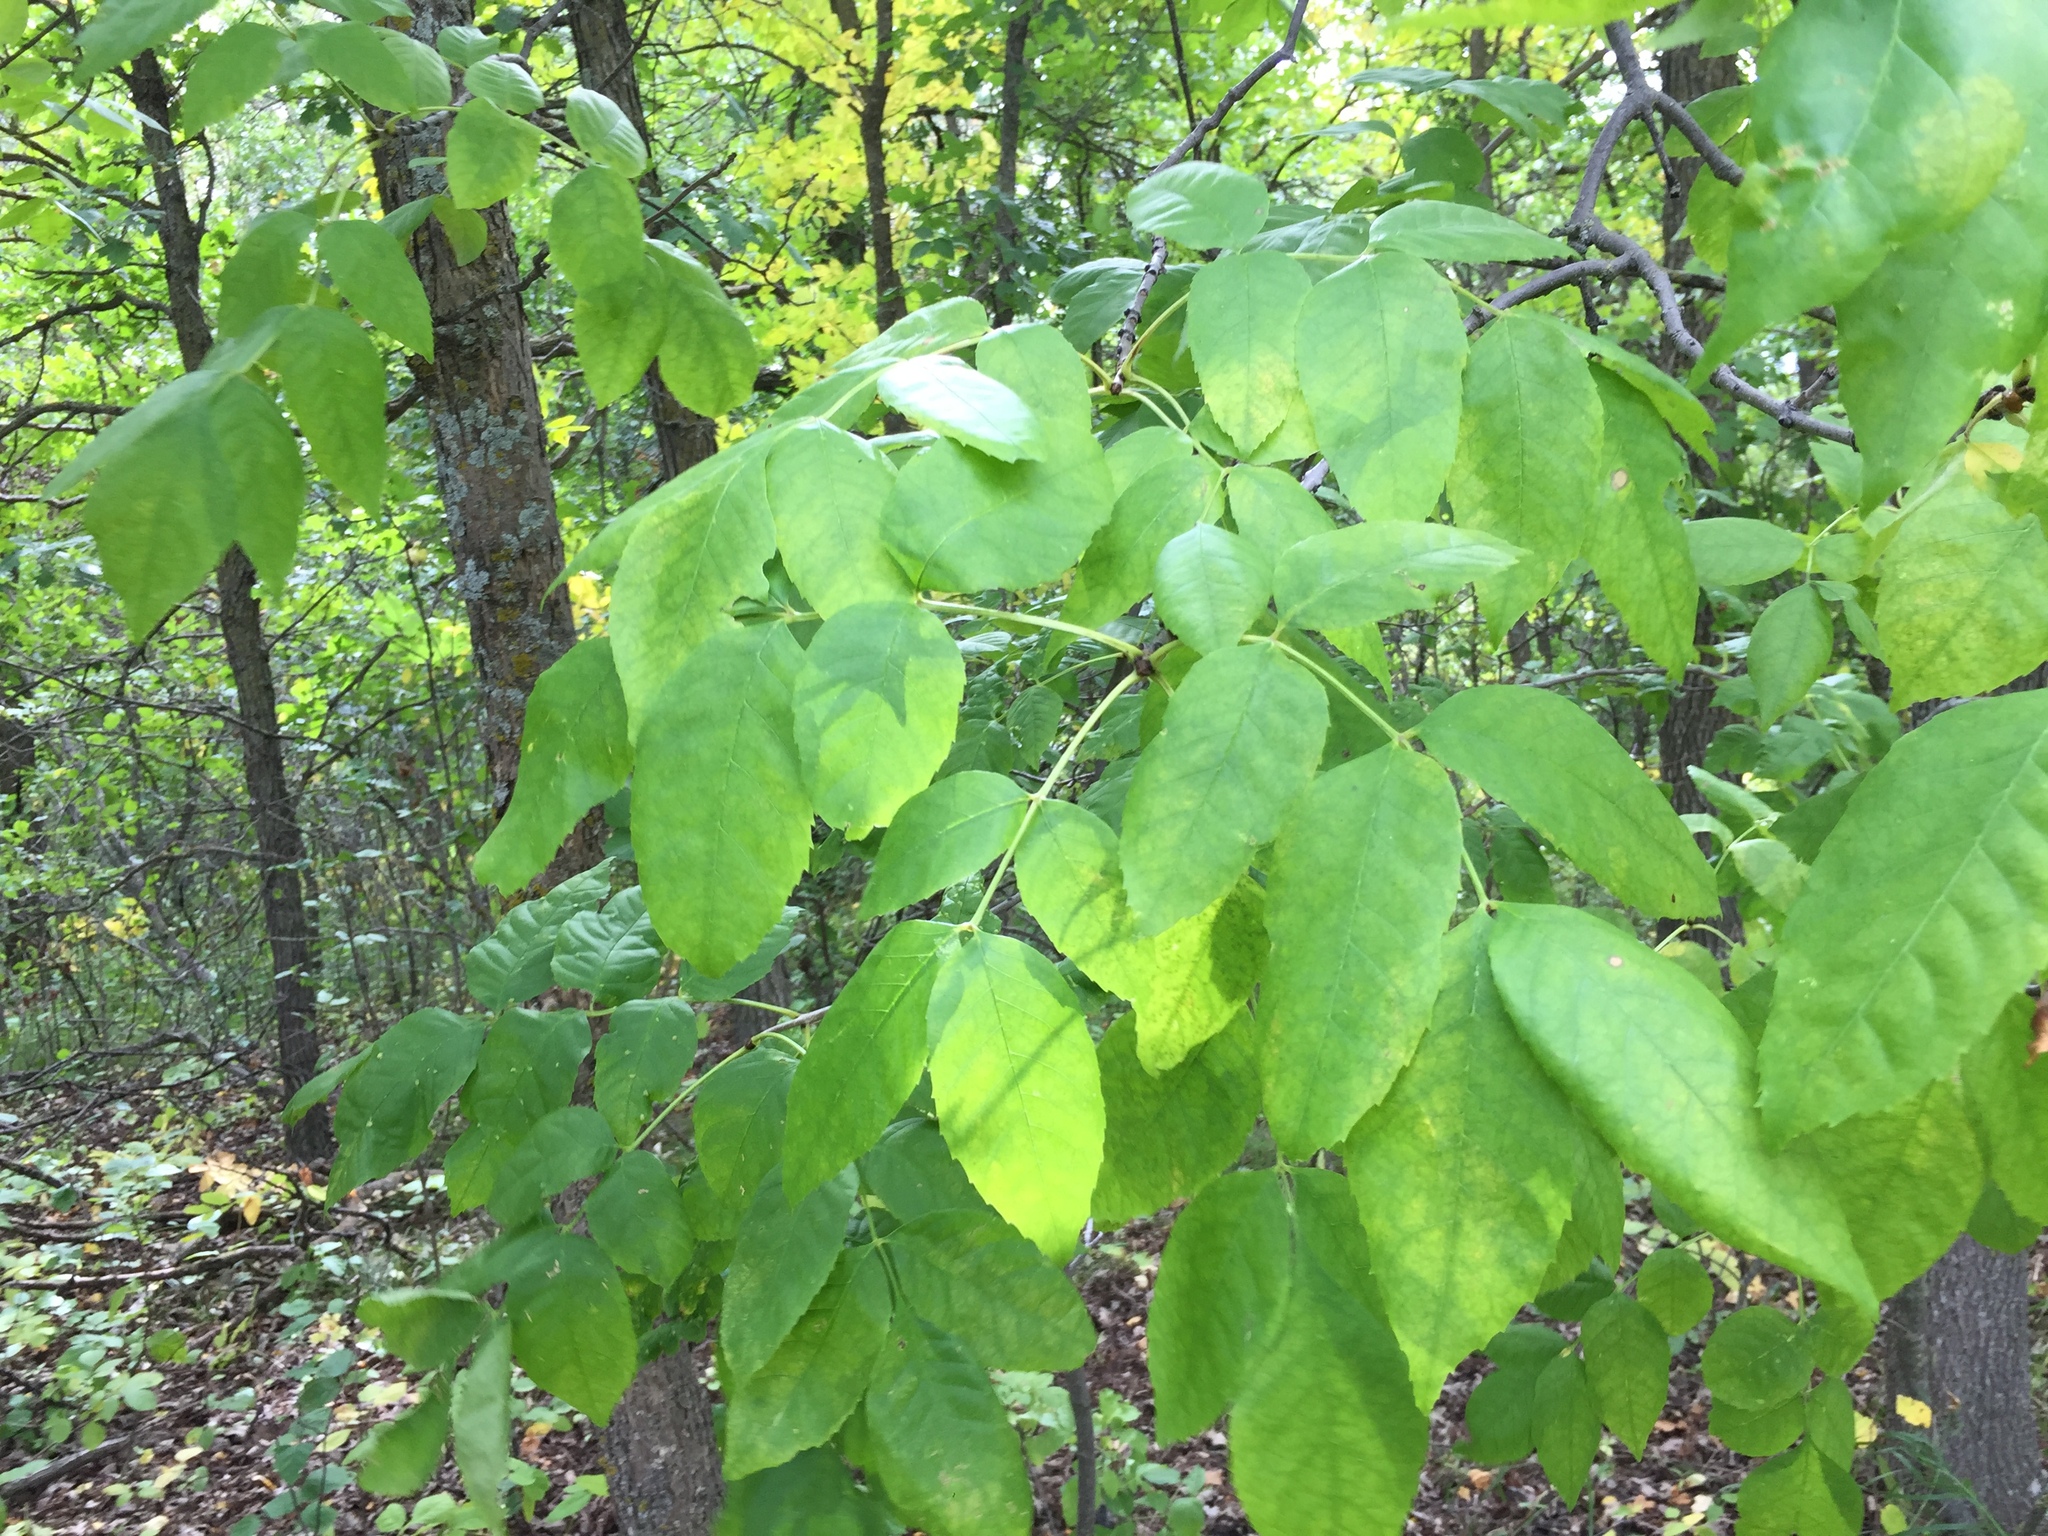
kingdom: Plantae
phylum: Tracheophyta
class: Magnoliopsida
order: Lamiales
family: Oleaceae
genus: Fraxinus
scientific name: Fraxinus pennsylvanica
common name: Green ash
